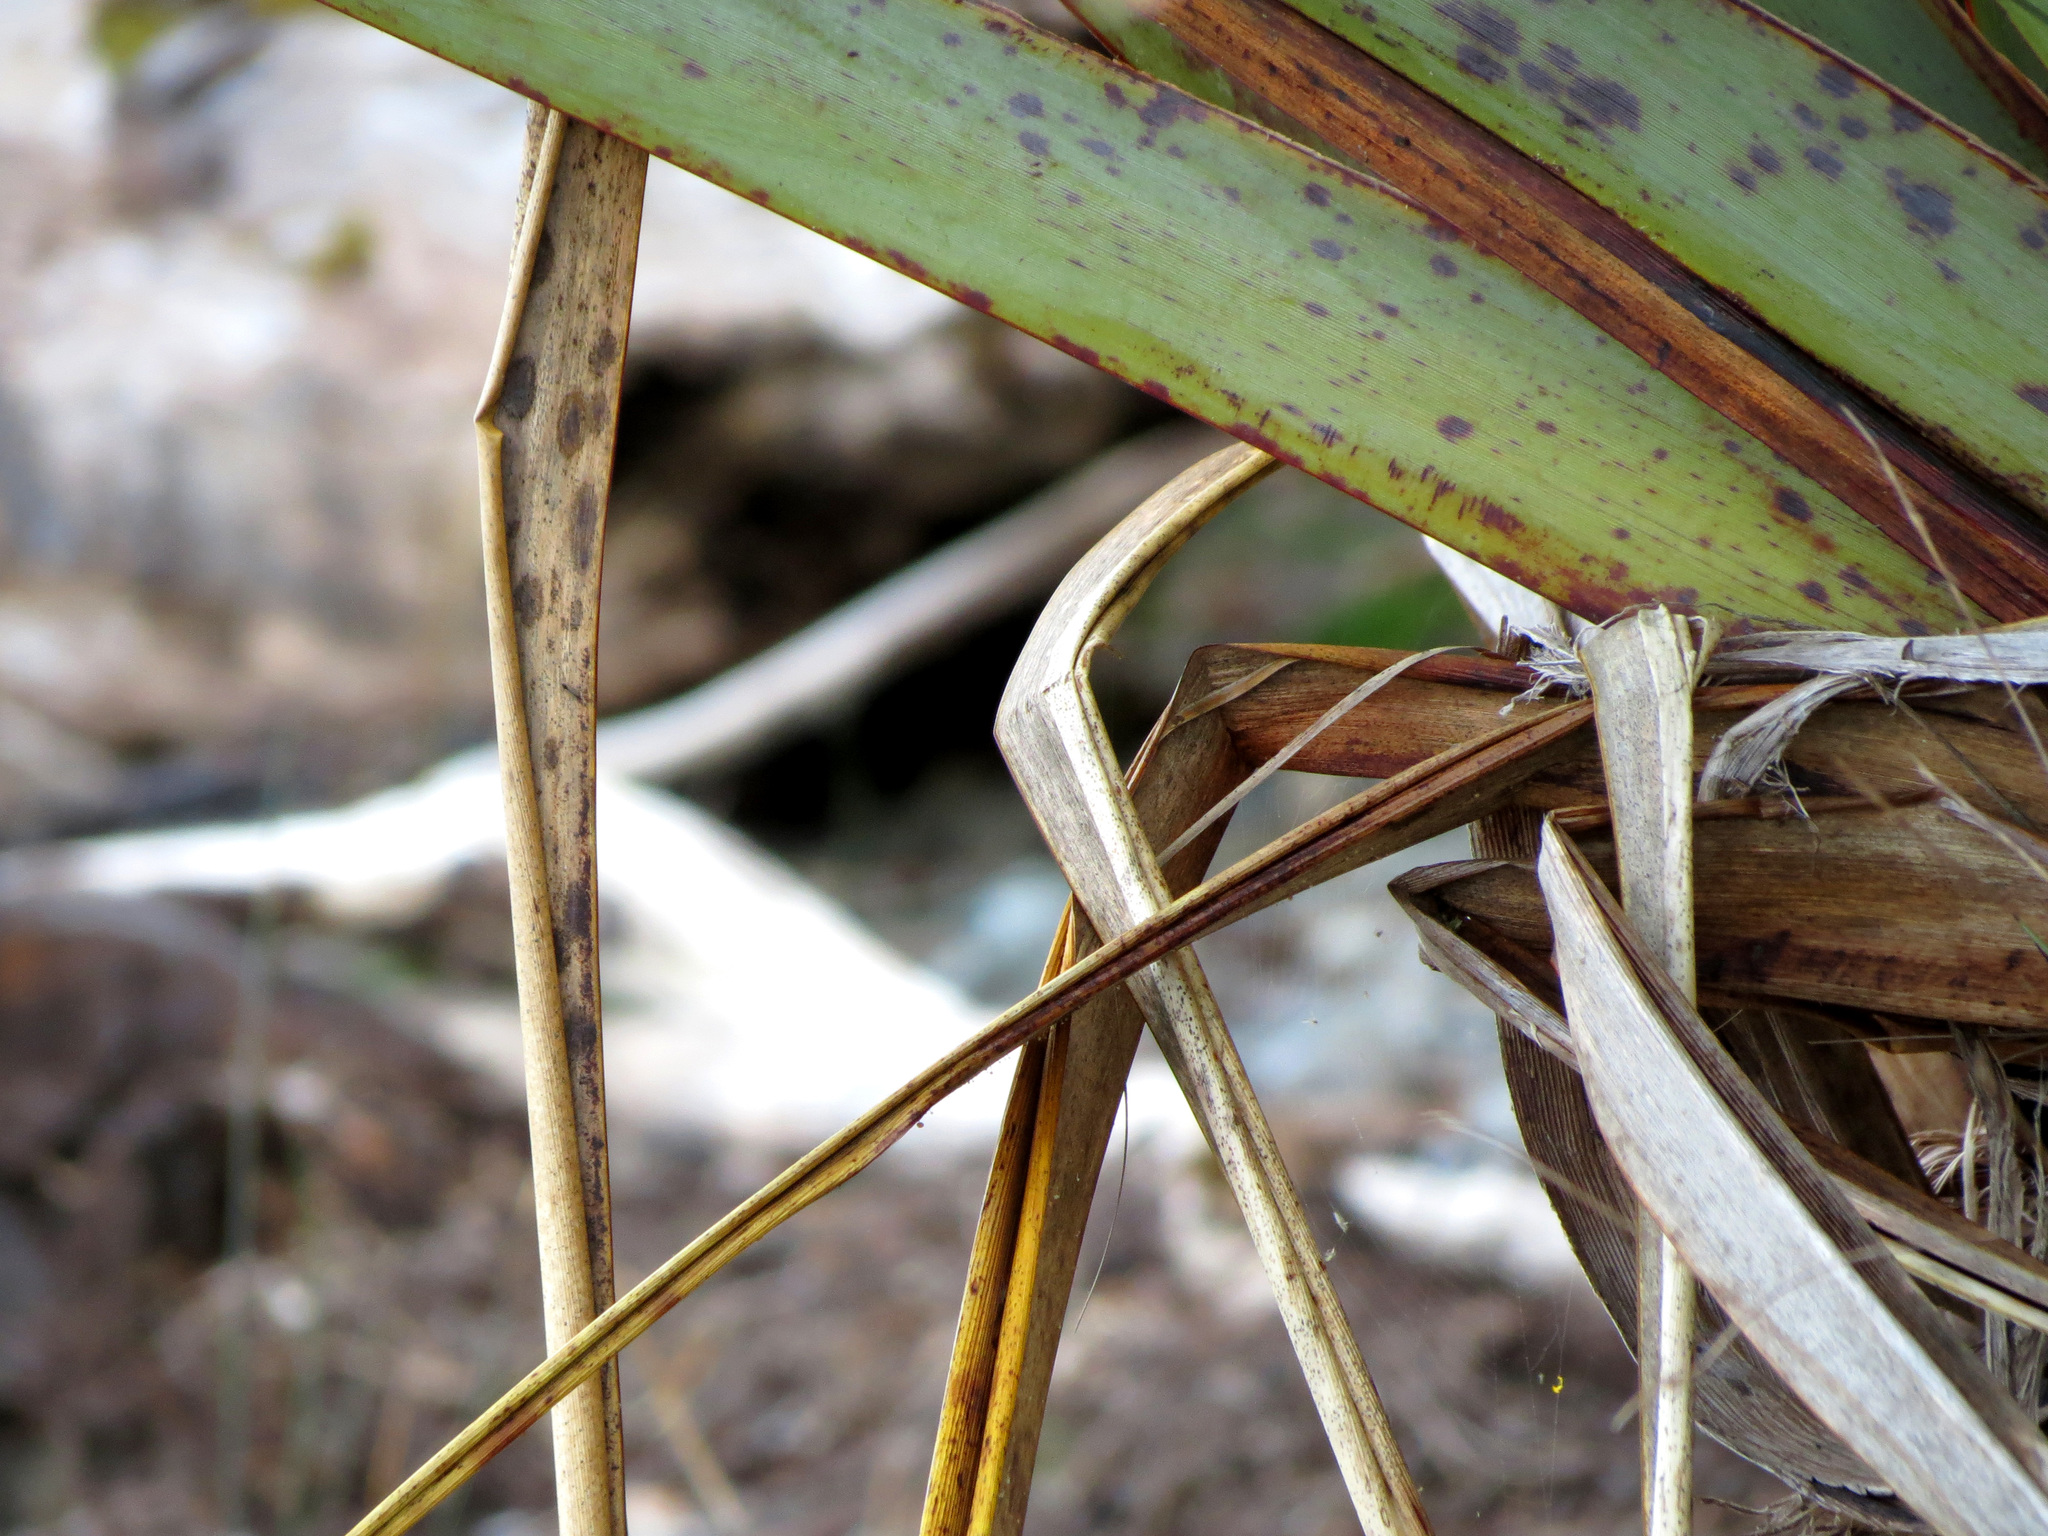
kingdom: Plantae
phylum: Tracheophyta
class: Liliopsida
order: Asparagales
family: Asphodelaceae
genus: Phormium
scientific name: Phormium tenax
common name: New zealand flax
